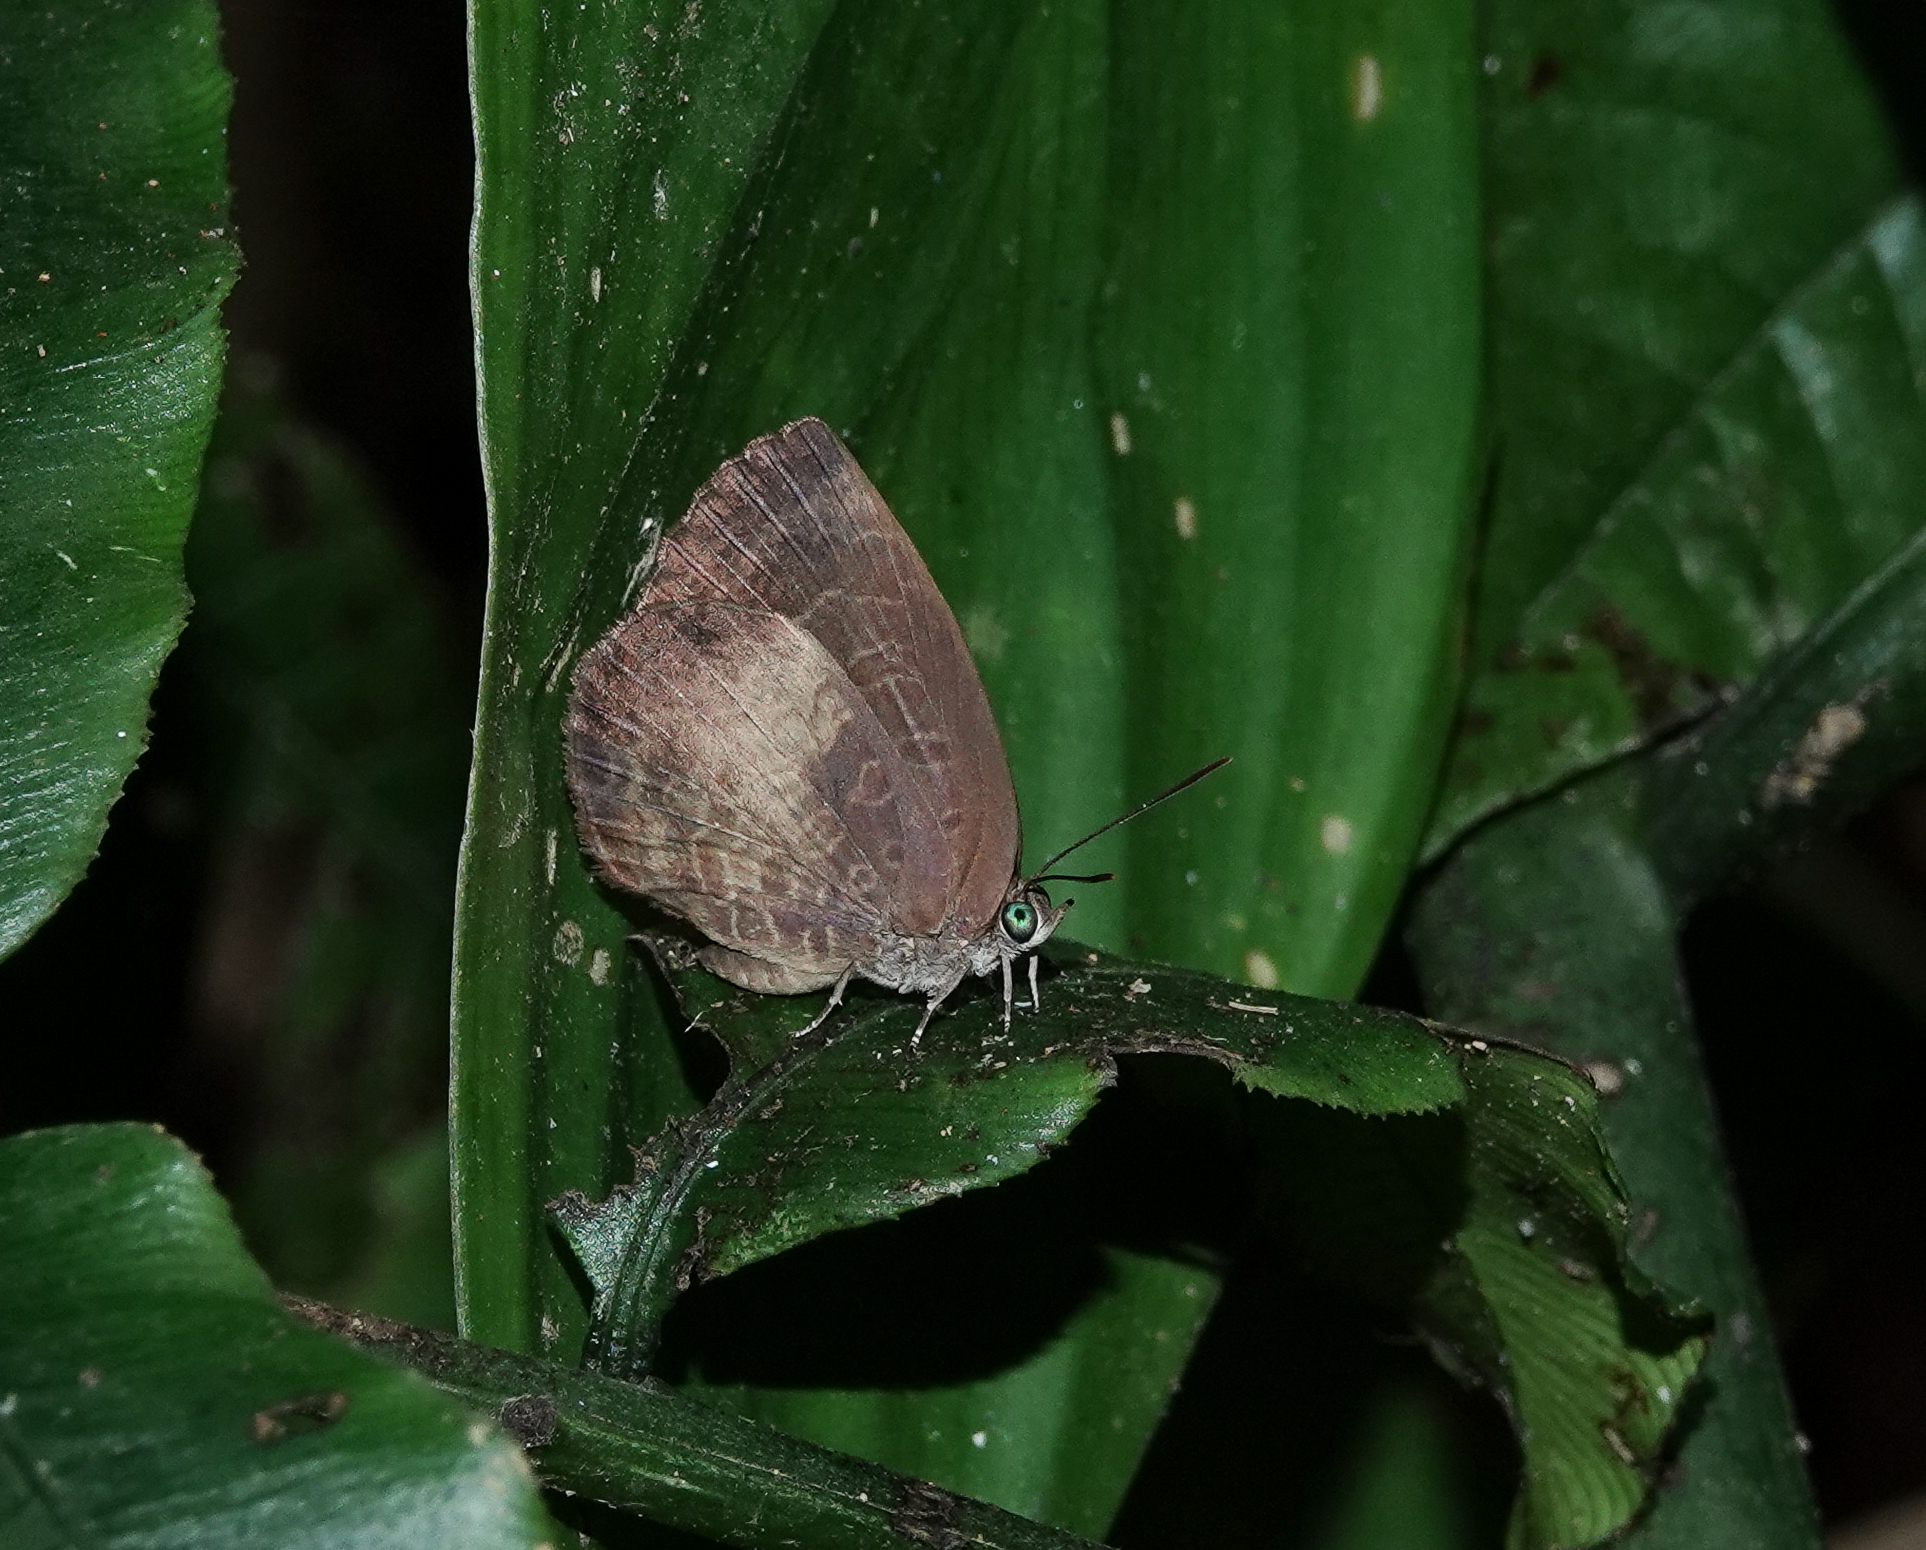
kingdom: Animalia
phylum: Arthropoda
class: Insecta
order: Lepidoptera
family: Lycaenidae
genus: Arhopala
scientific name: Arhopala perimuta
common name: Yellowdisc oakblue
